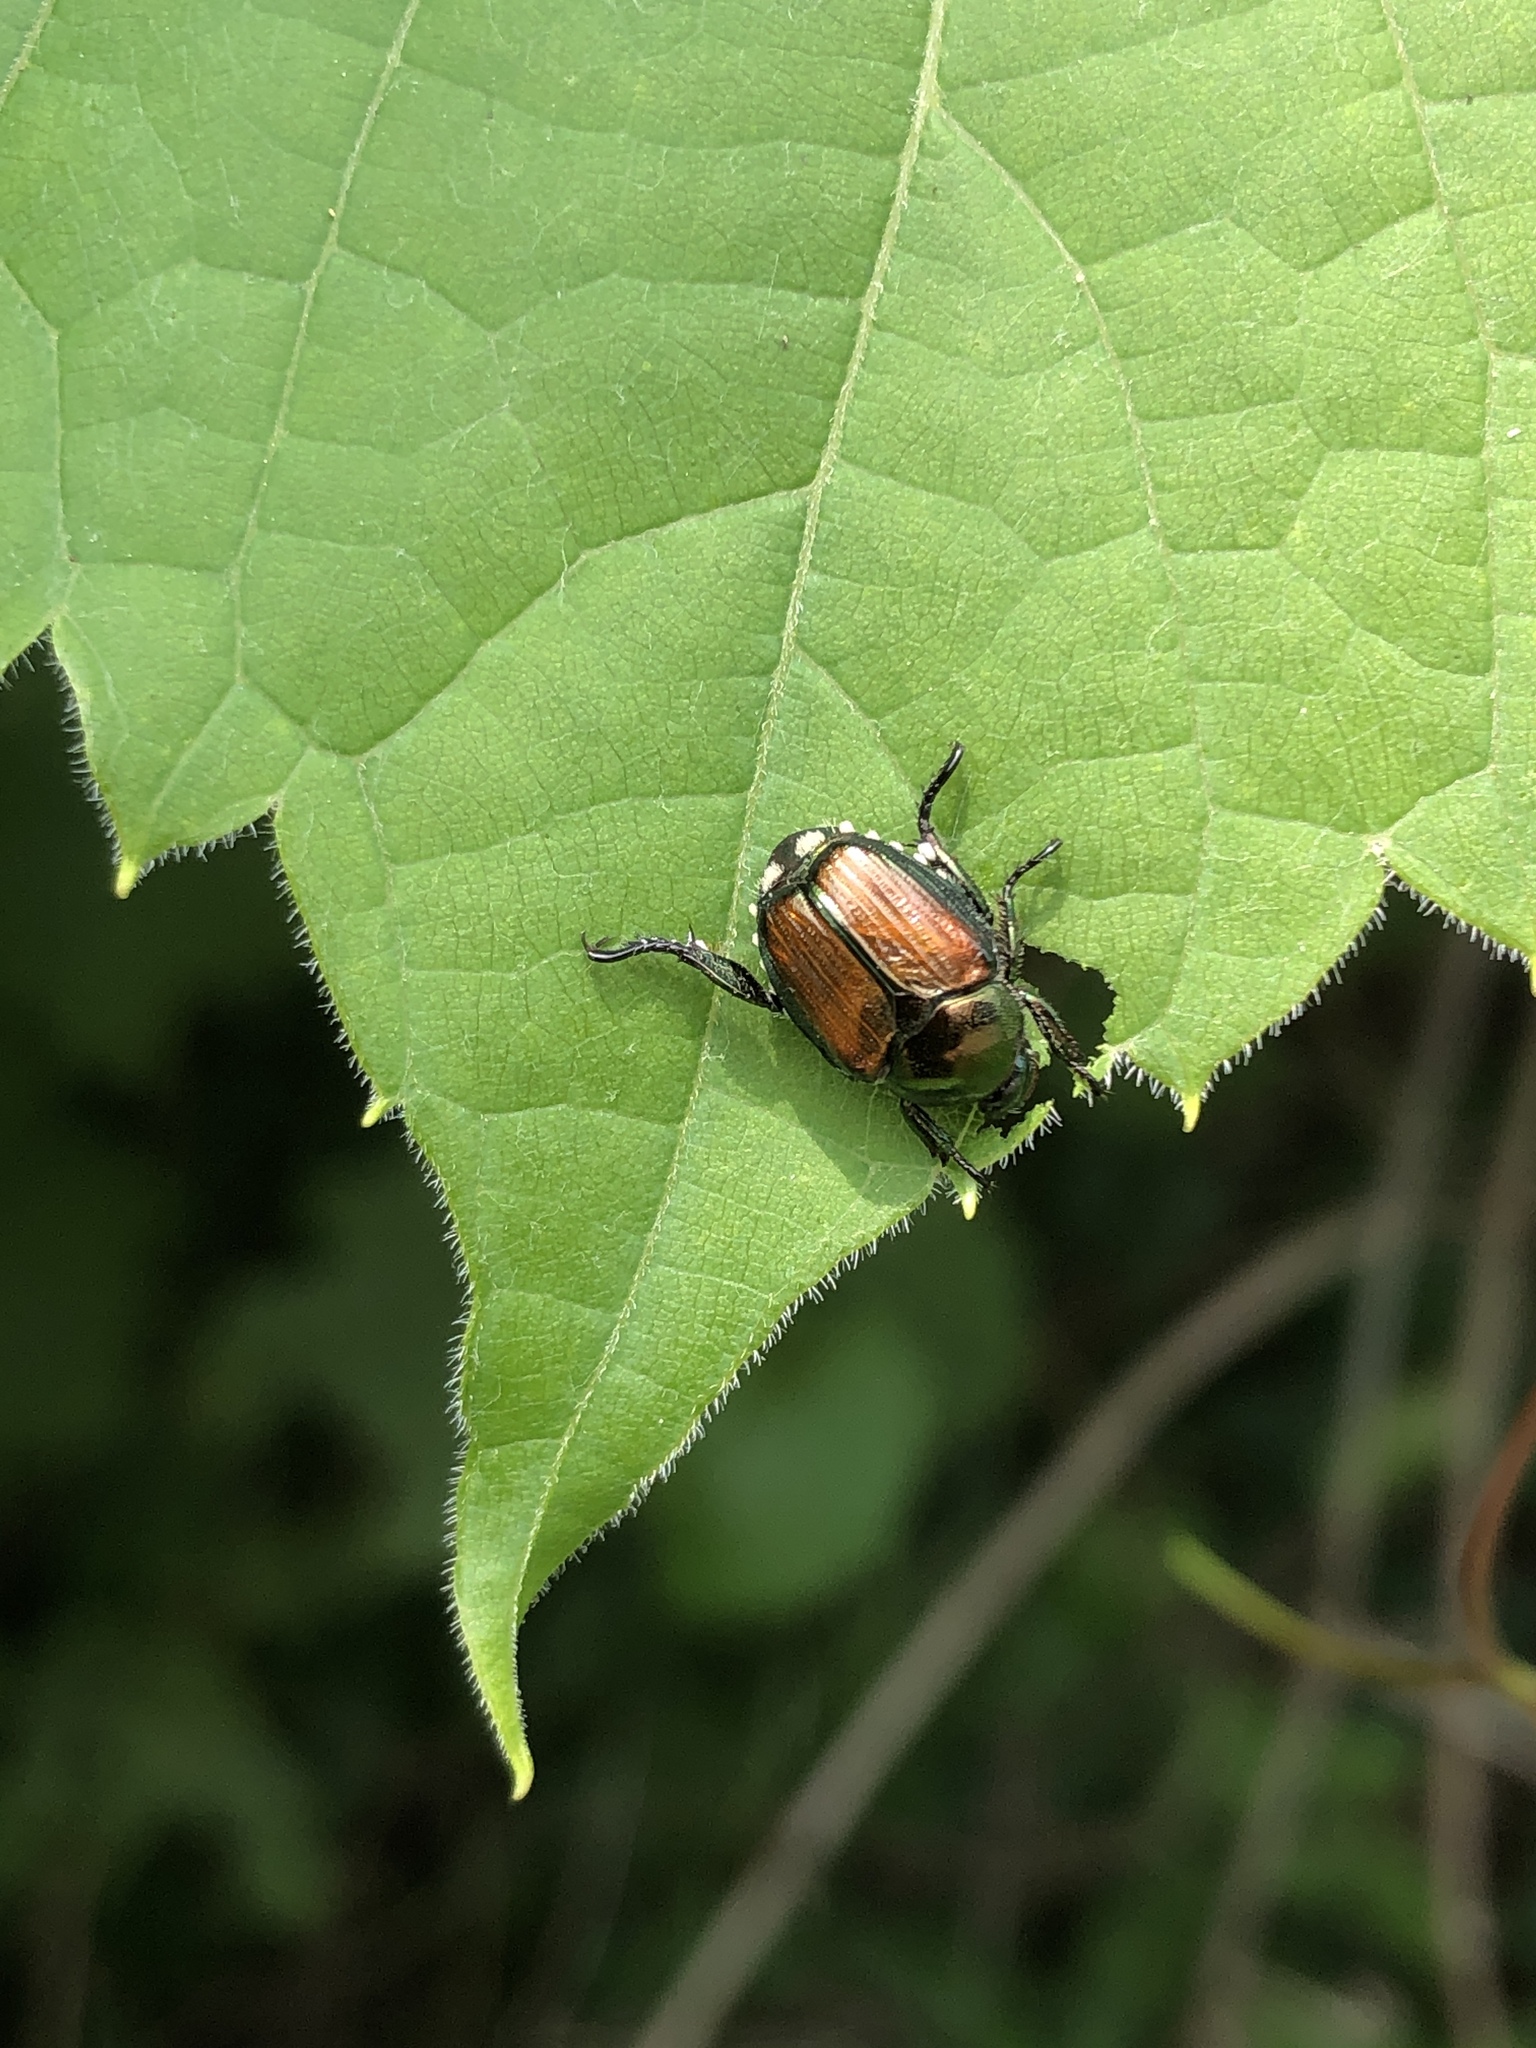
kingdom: Animalia
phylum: Arthropoda
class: Insecta
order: Coleoptera
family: Scarabaeidae
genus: Popillia
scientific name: Popillia japonica
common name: Japanese beetle
